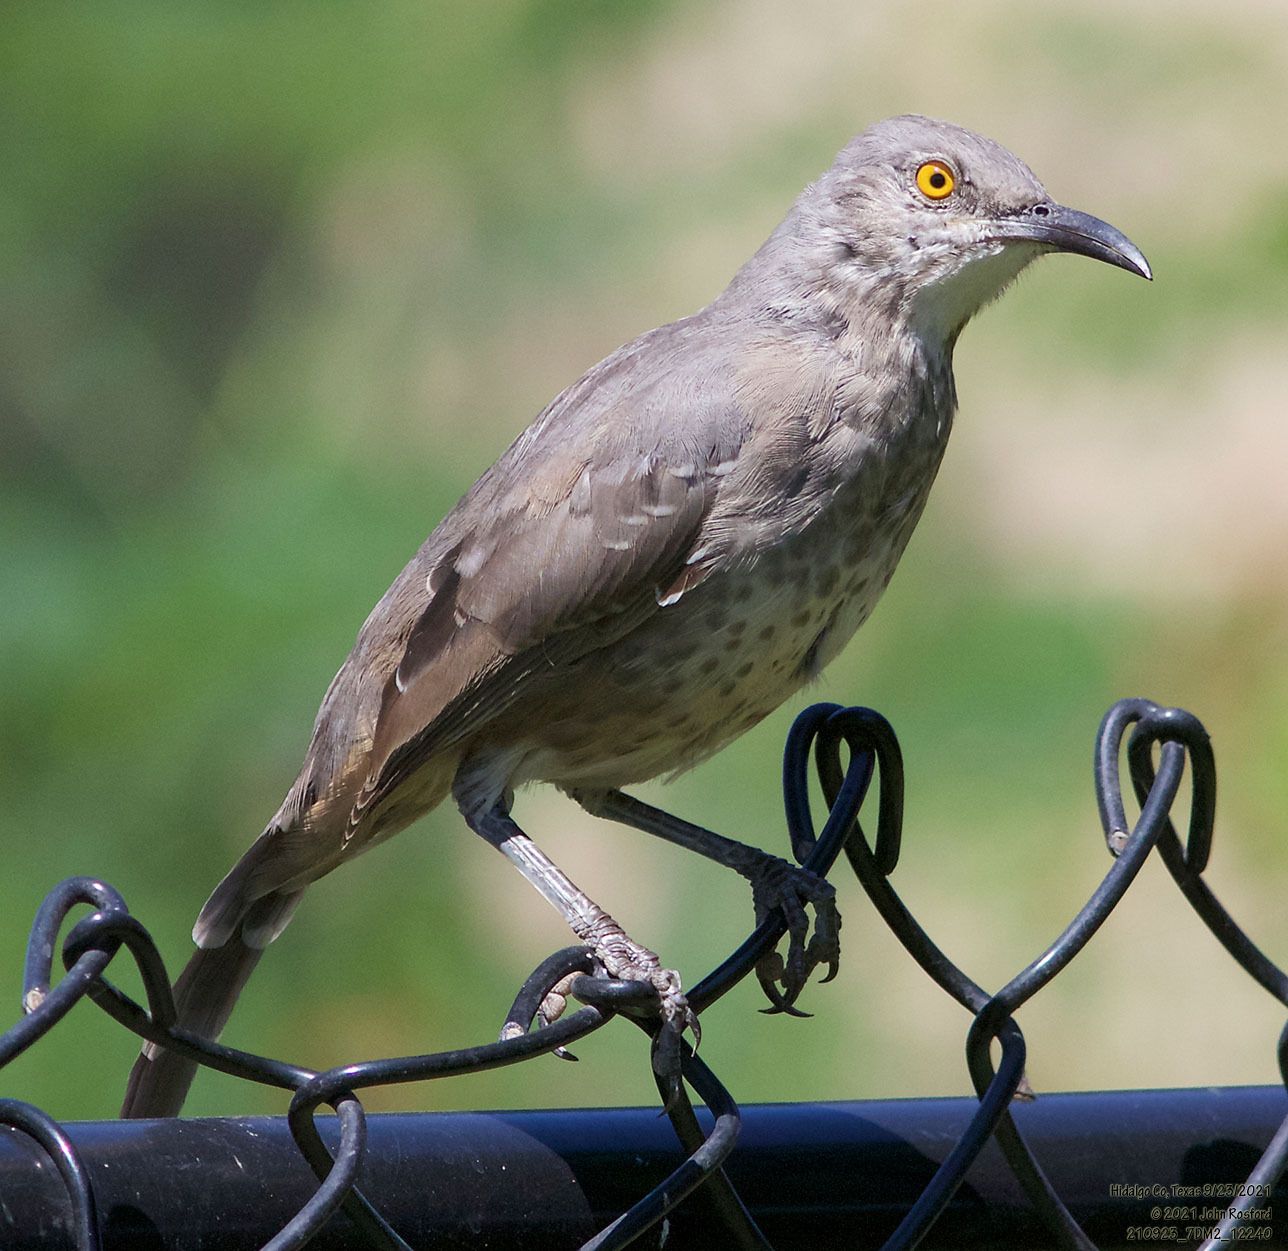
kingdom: Animalia
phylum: Chordata
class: Aves
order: Passeriformes
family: Mimidae
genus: Toxostoma
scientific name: Toxostoma curvirostre
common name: Curve-billed thrasher
